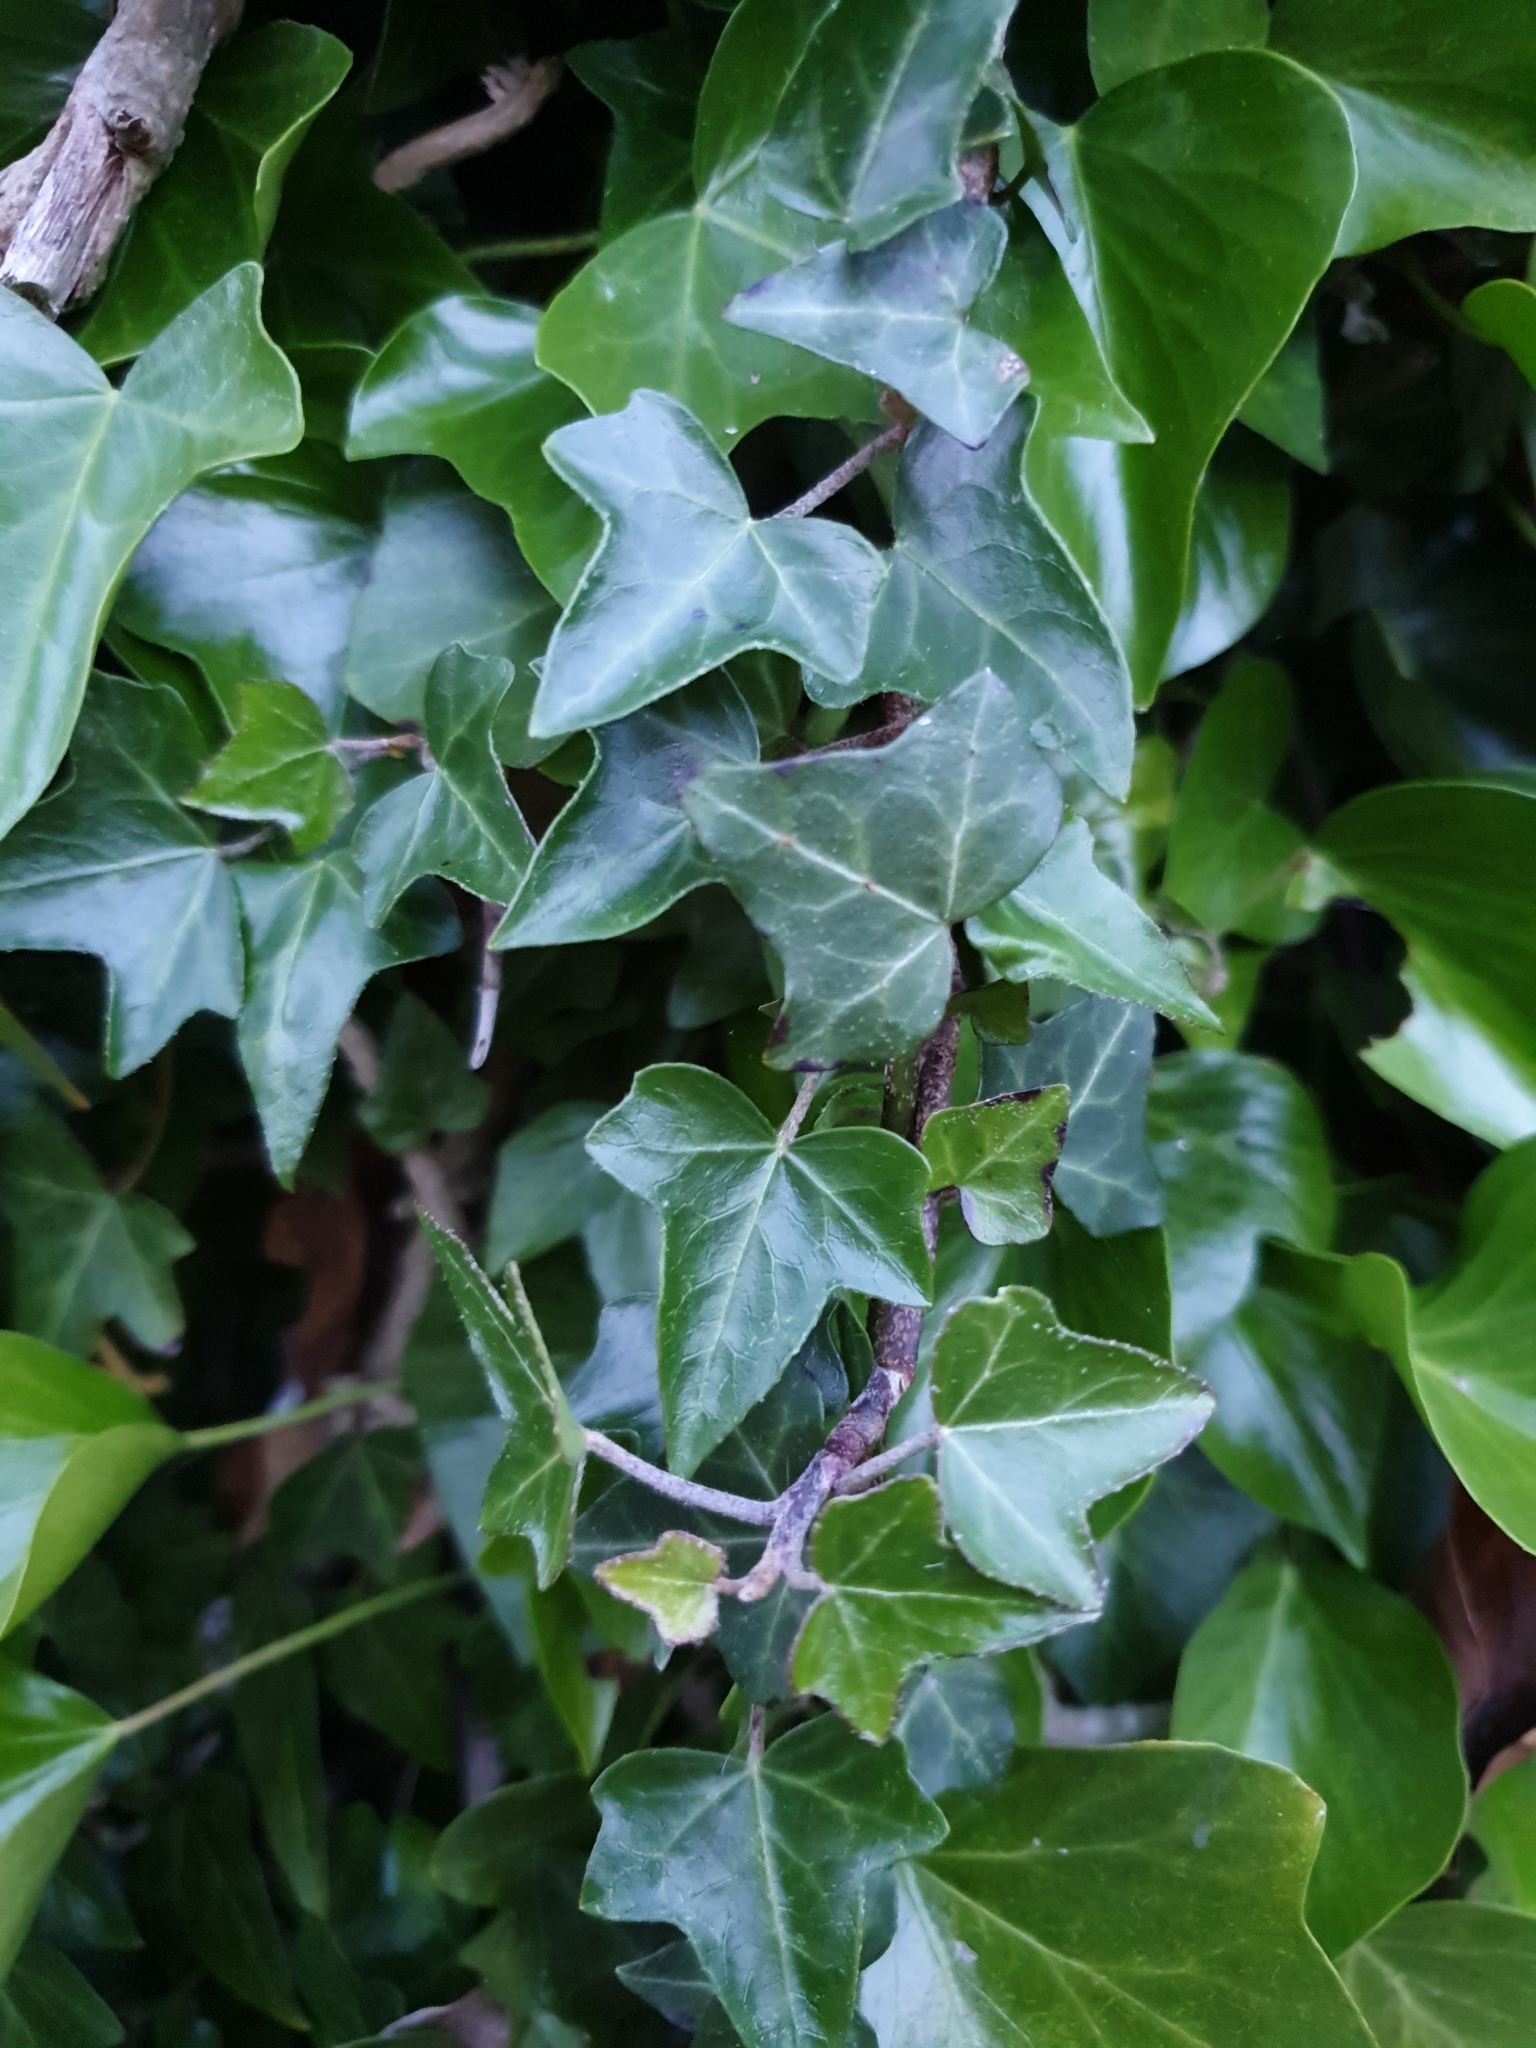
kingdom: Plantae
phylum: Tracheophyta
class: Magnoliopsida
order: Apiales
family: Araliaceae
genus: Hedera
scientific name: Hedera helix
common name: Ivy
